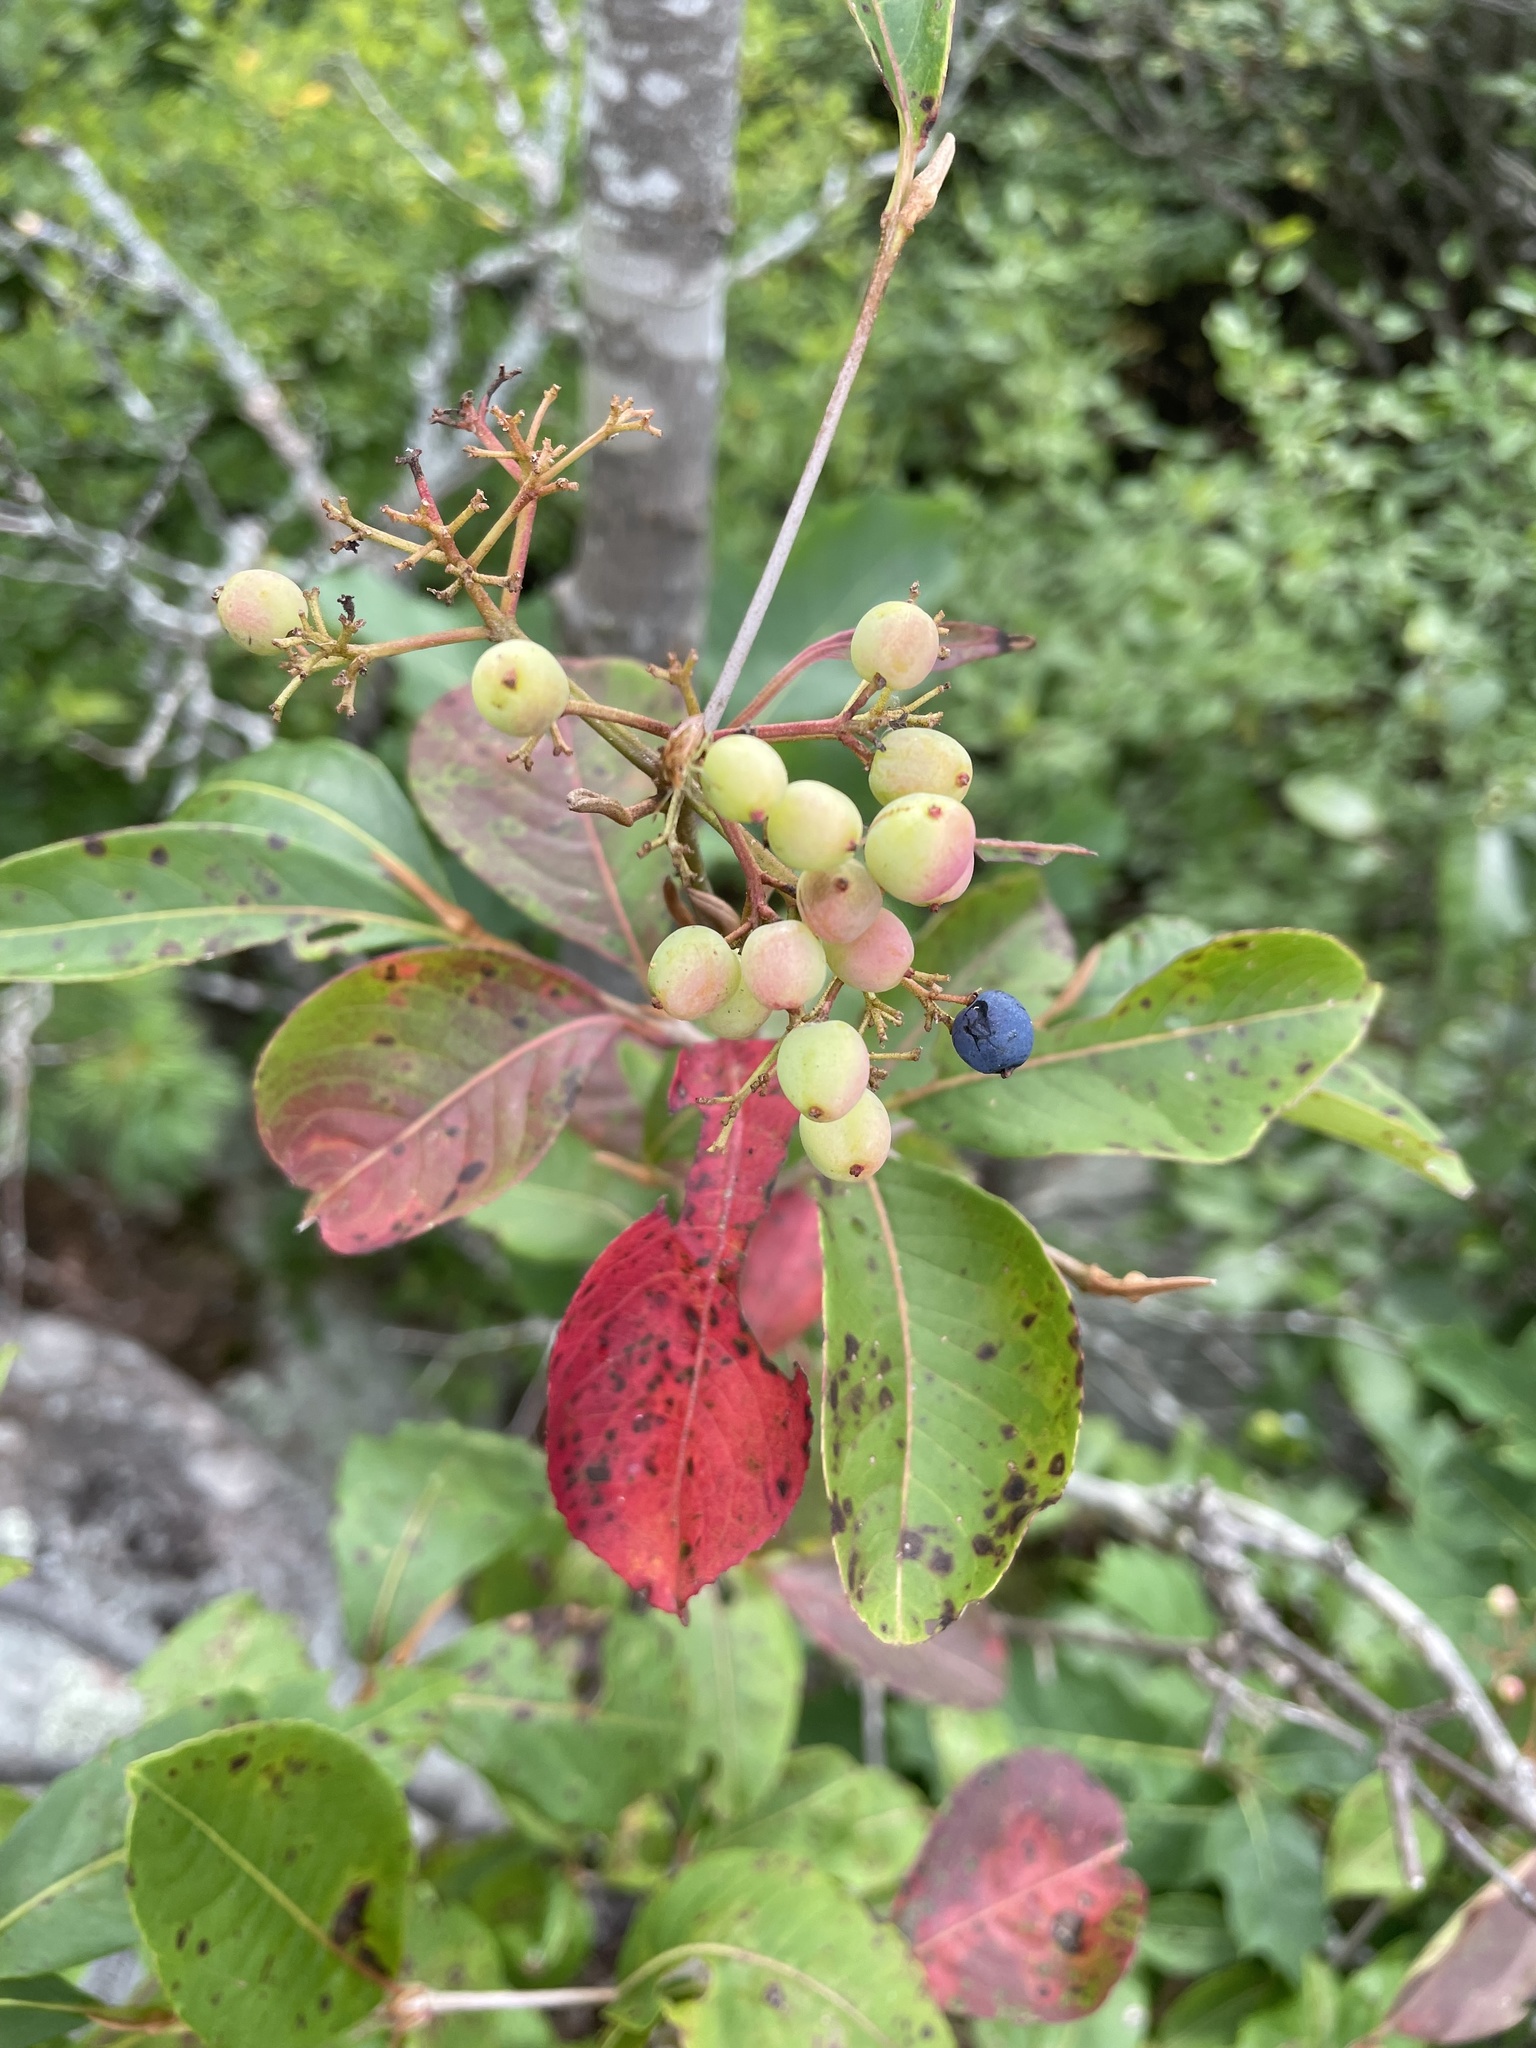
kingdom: Plantae
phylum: Tracheophyta
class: Magnoliopsida
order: Dipsacales
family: Viburnaceae
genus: Viburnum
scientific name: Viburnum cassinoides
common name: Swamp haw
